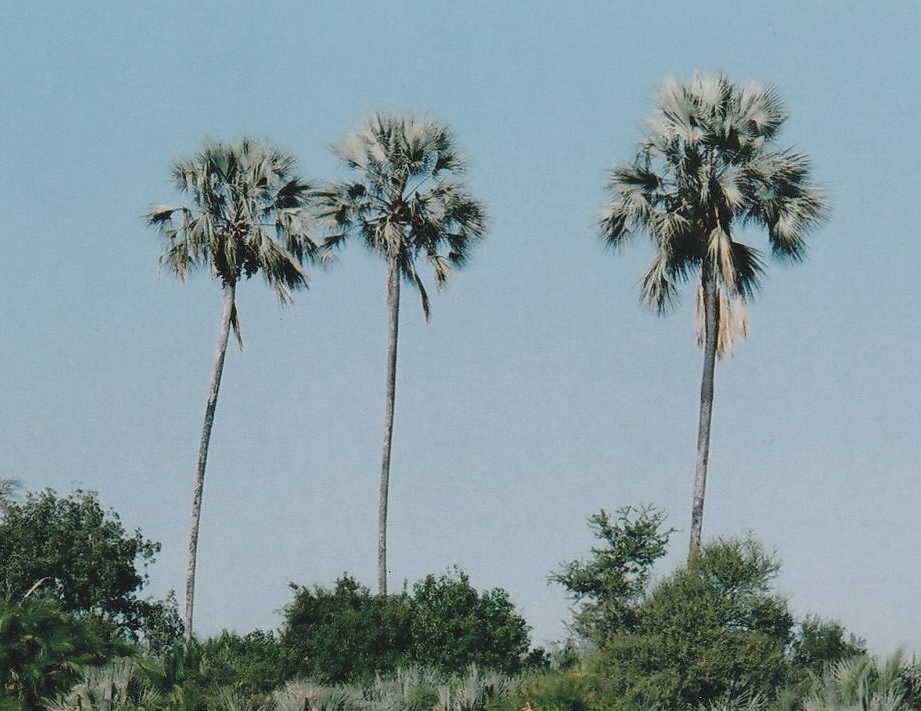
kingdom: Plantae
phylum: Tracheophyta
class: Liliopsida
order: Arecales
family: Arecaceae
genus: Hyphaene
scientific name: Hyphaene petersiana
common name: African ivory nut palm
